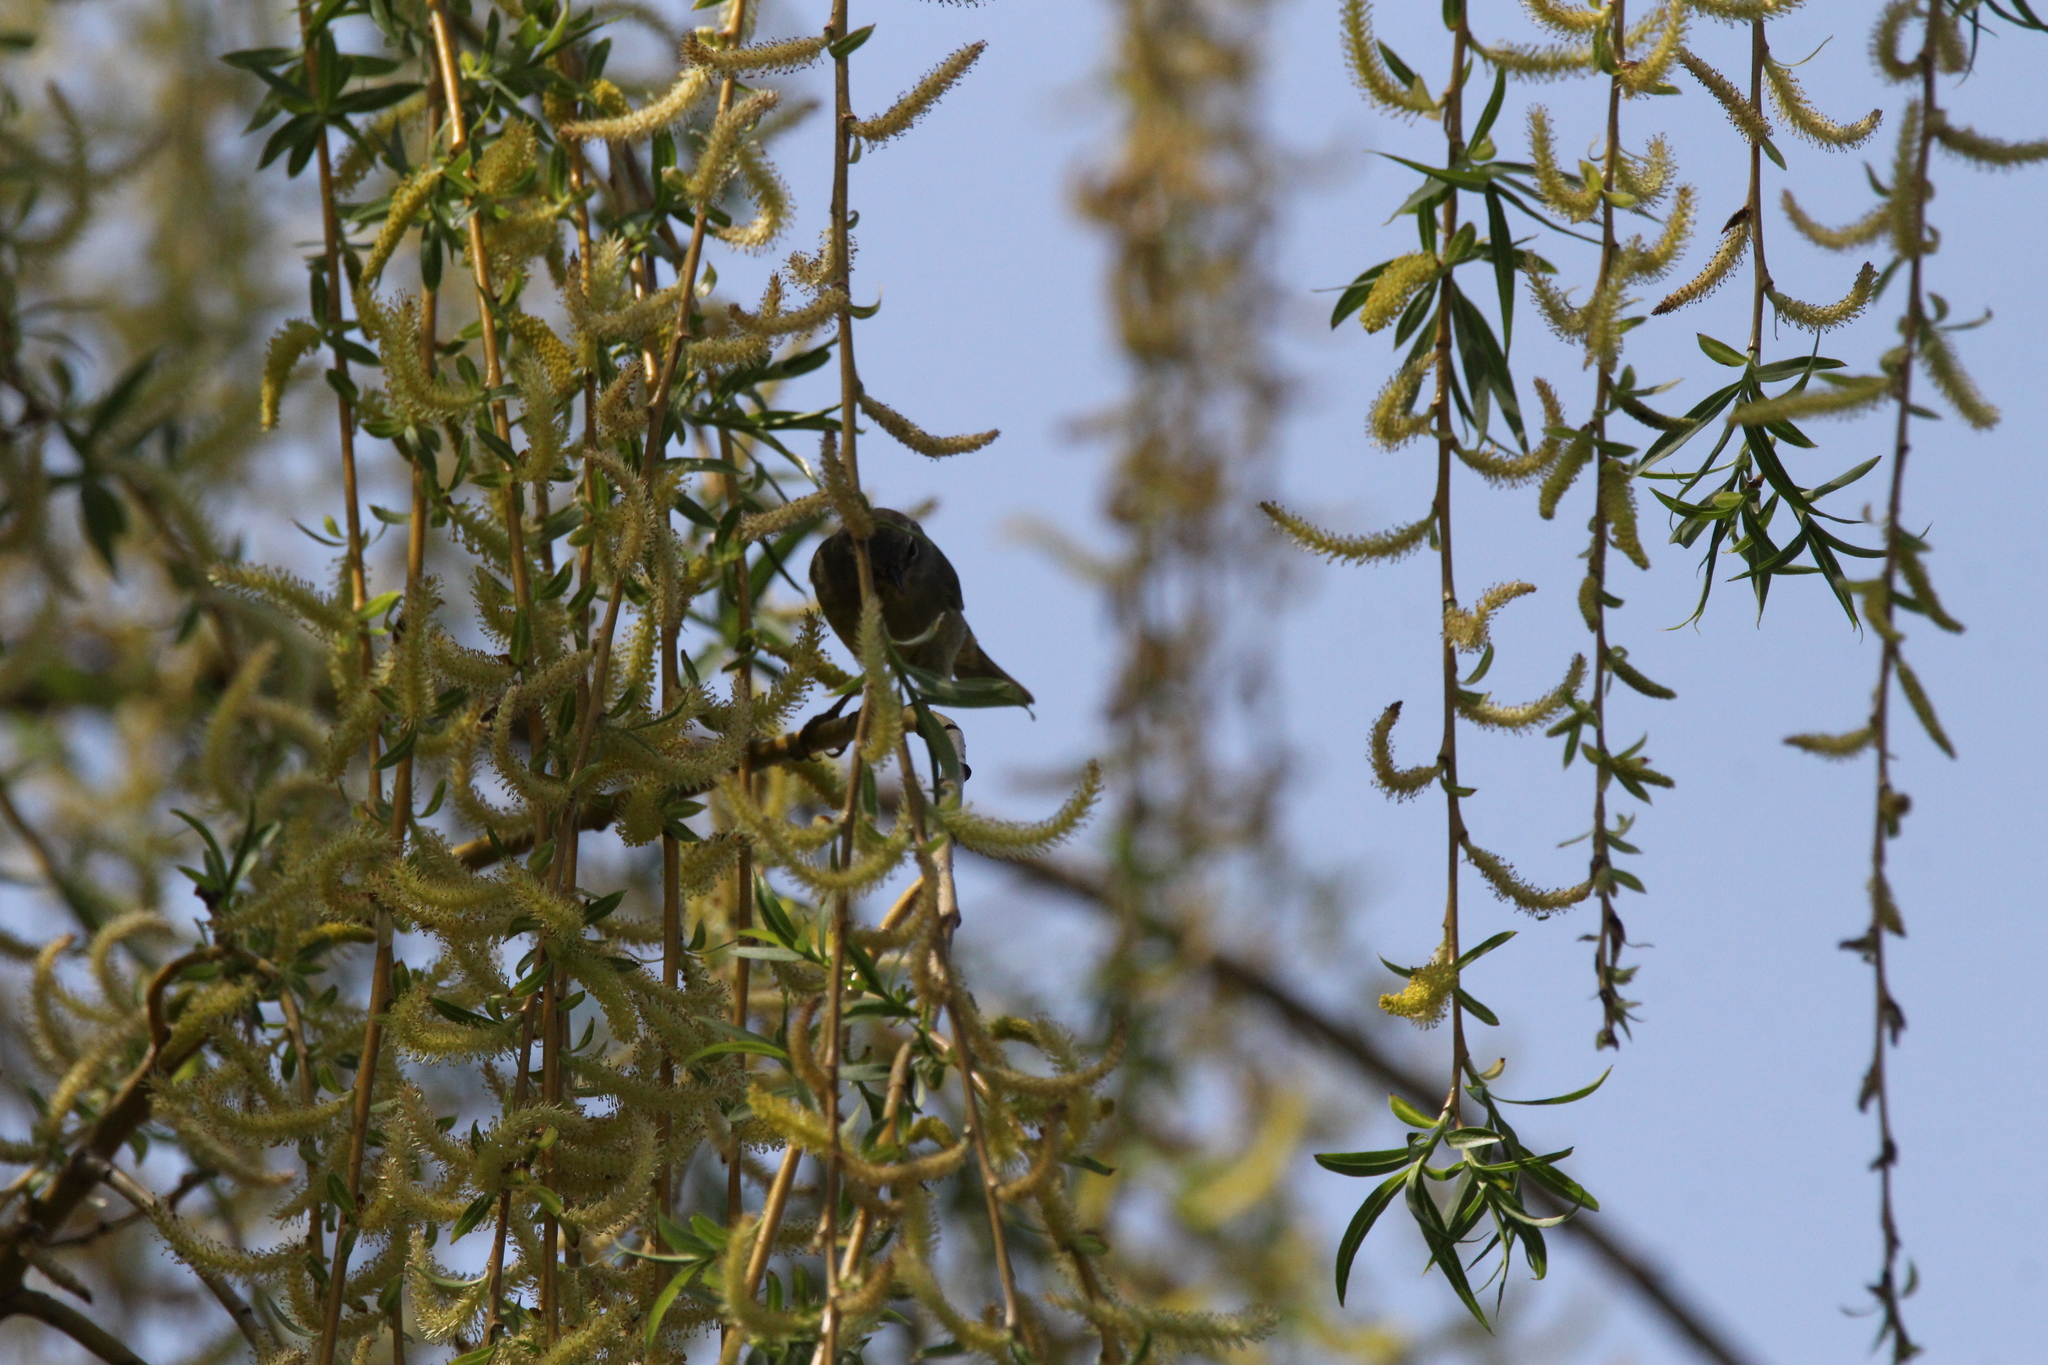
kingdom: Animalia
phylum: Chordata
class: Aves
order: Passeriformes
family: Parulidae
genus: Setophaga
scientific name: Setophaga palmarum
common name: Palm warbler
